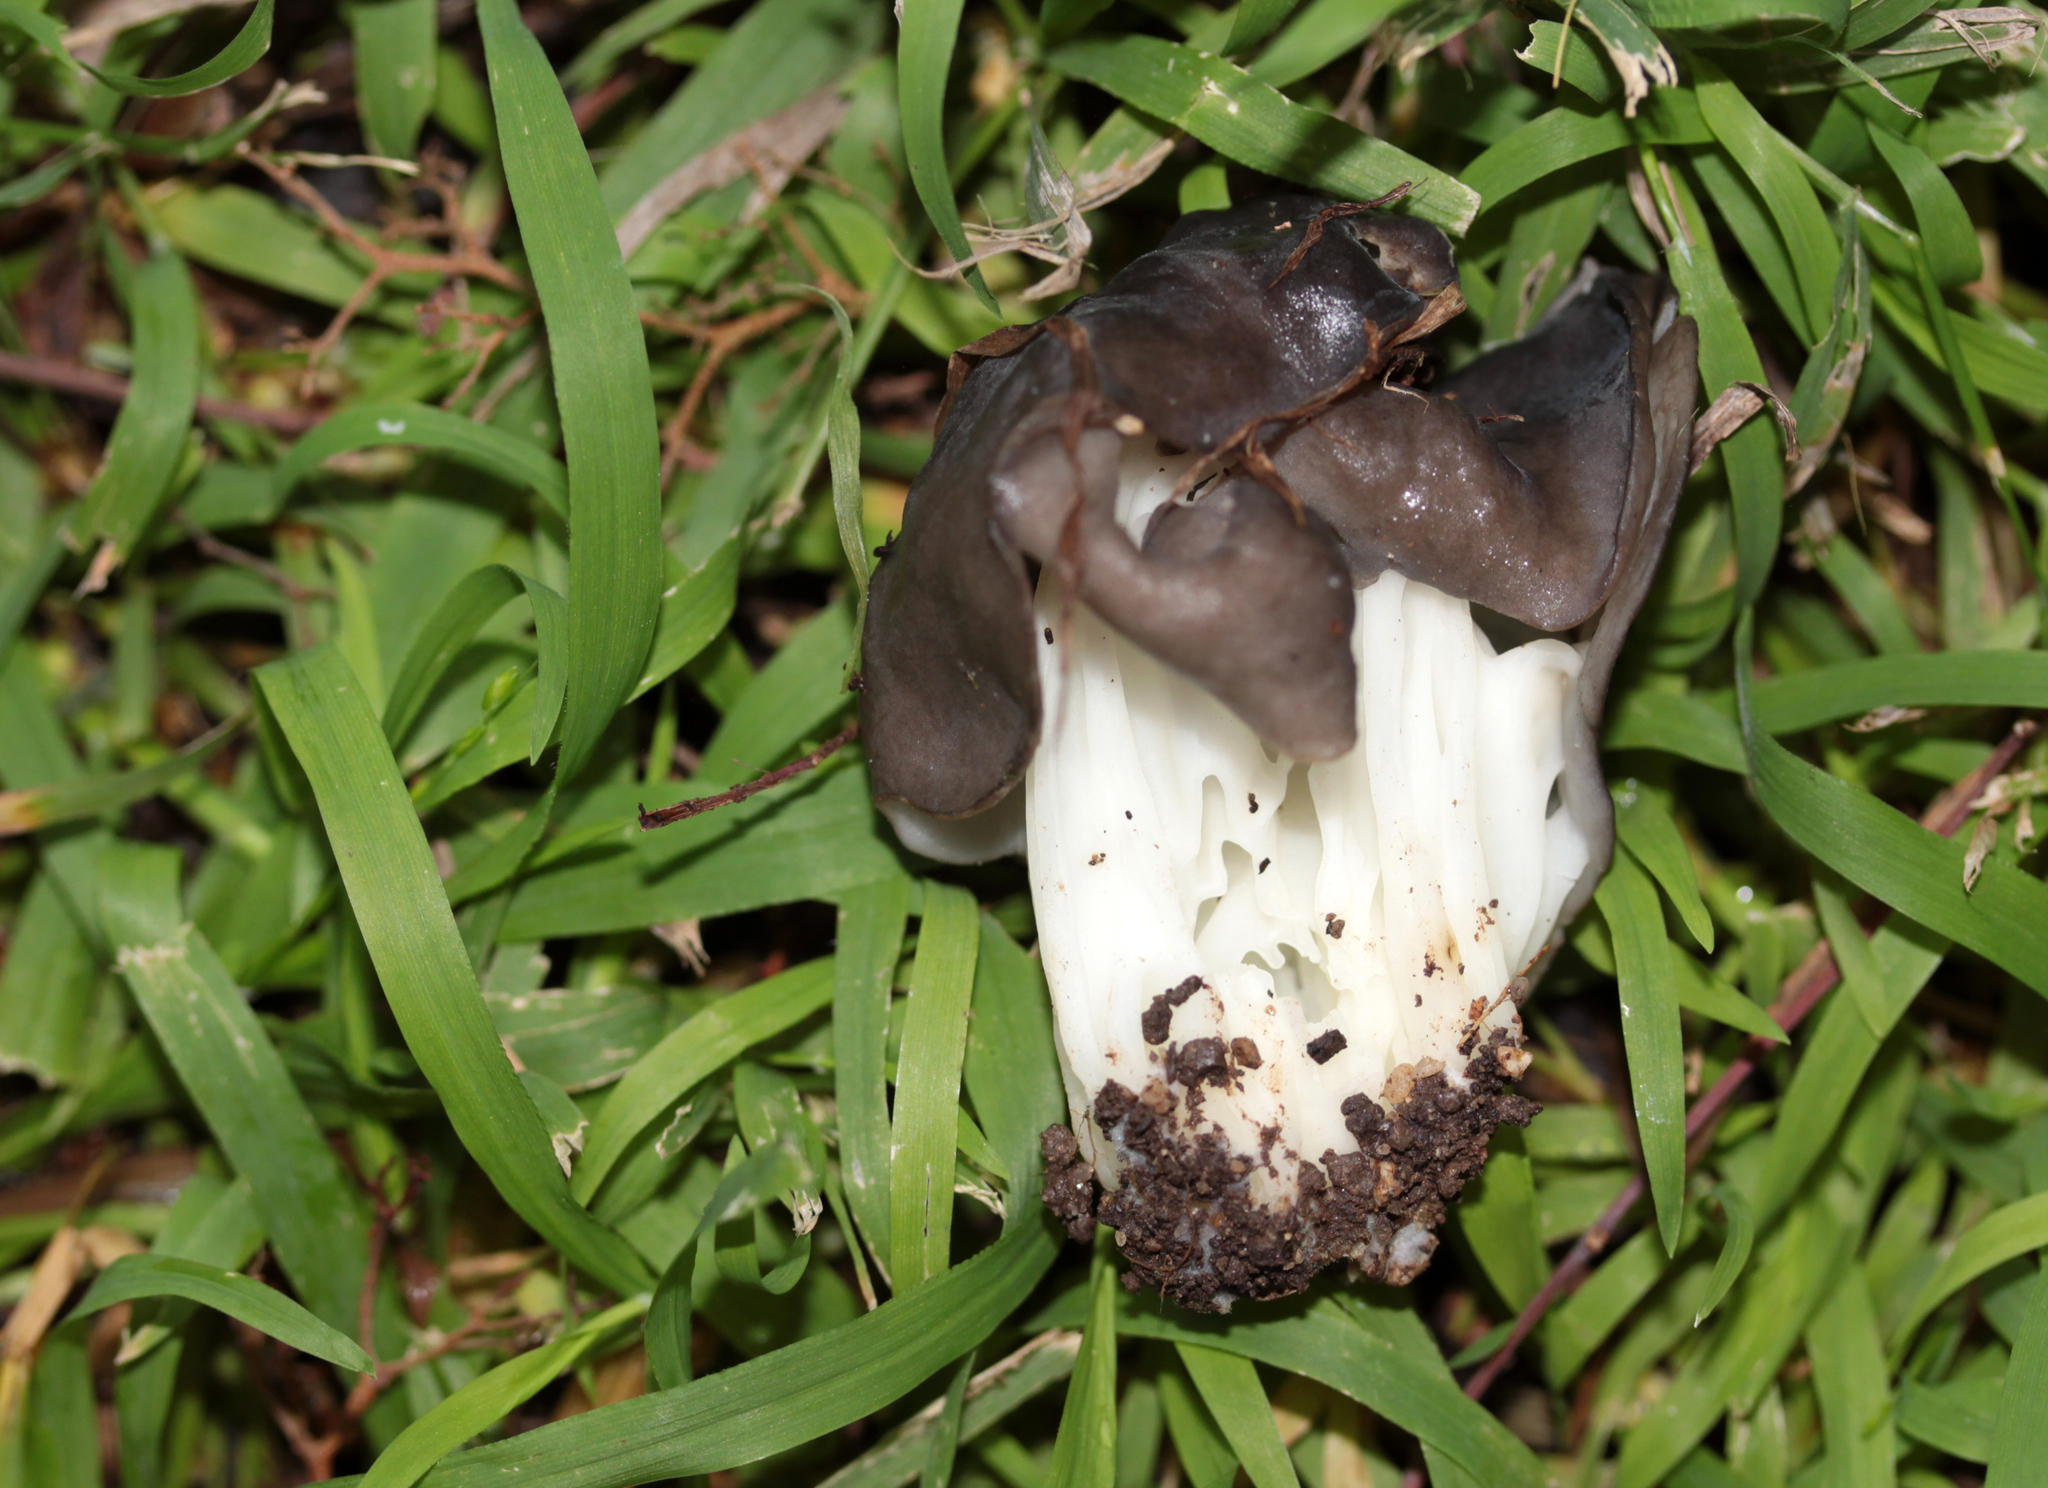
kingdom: Fungi
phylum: Ascomycota
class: Pezizomycetes
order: Pezizales
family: Helvellaceae
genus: Helvella
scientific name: Helvella dryophila
